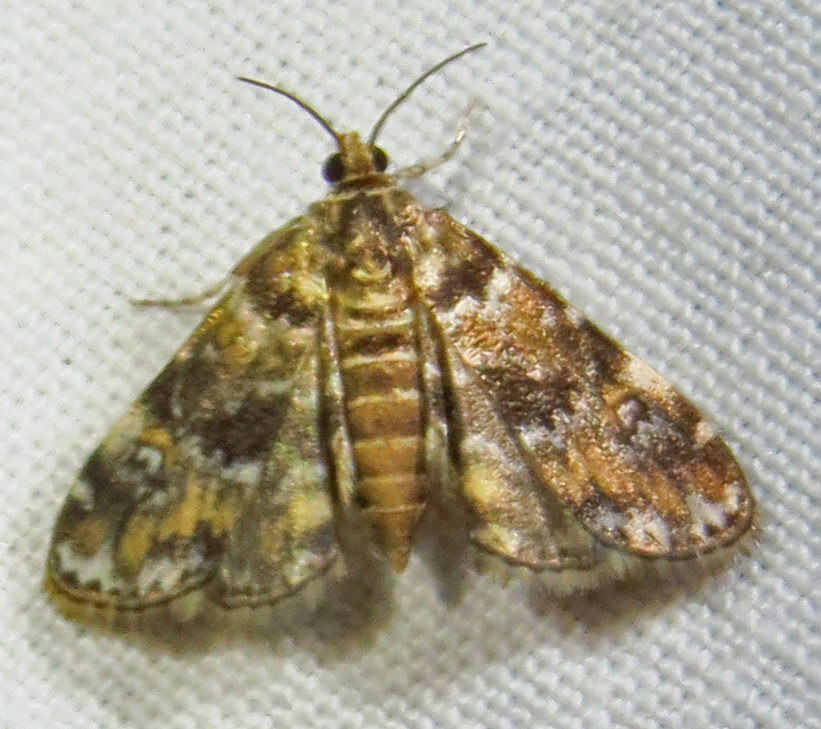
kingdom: Animalia
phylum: Arthropoda
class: Insecta
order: Lepidoptera
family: Crambidae
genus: Elophila
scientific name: Elophila obliteralis
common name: Waterlily leafcutter moth
